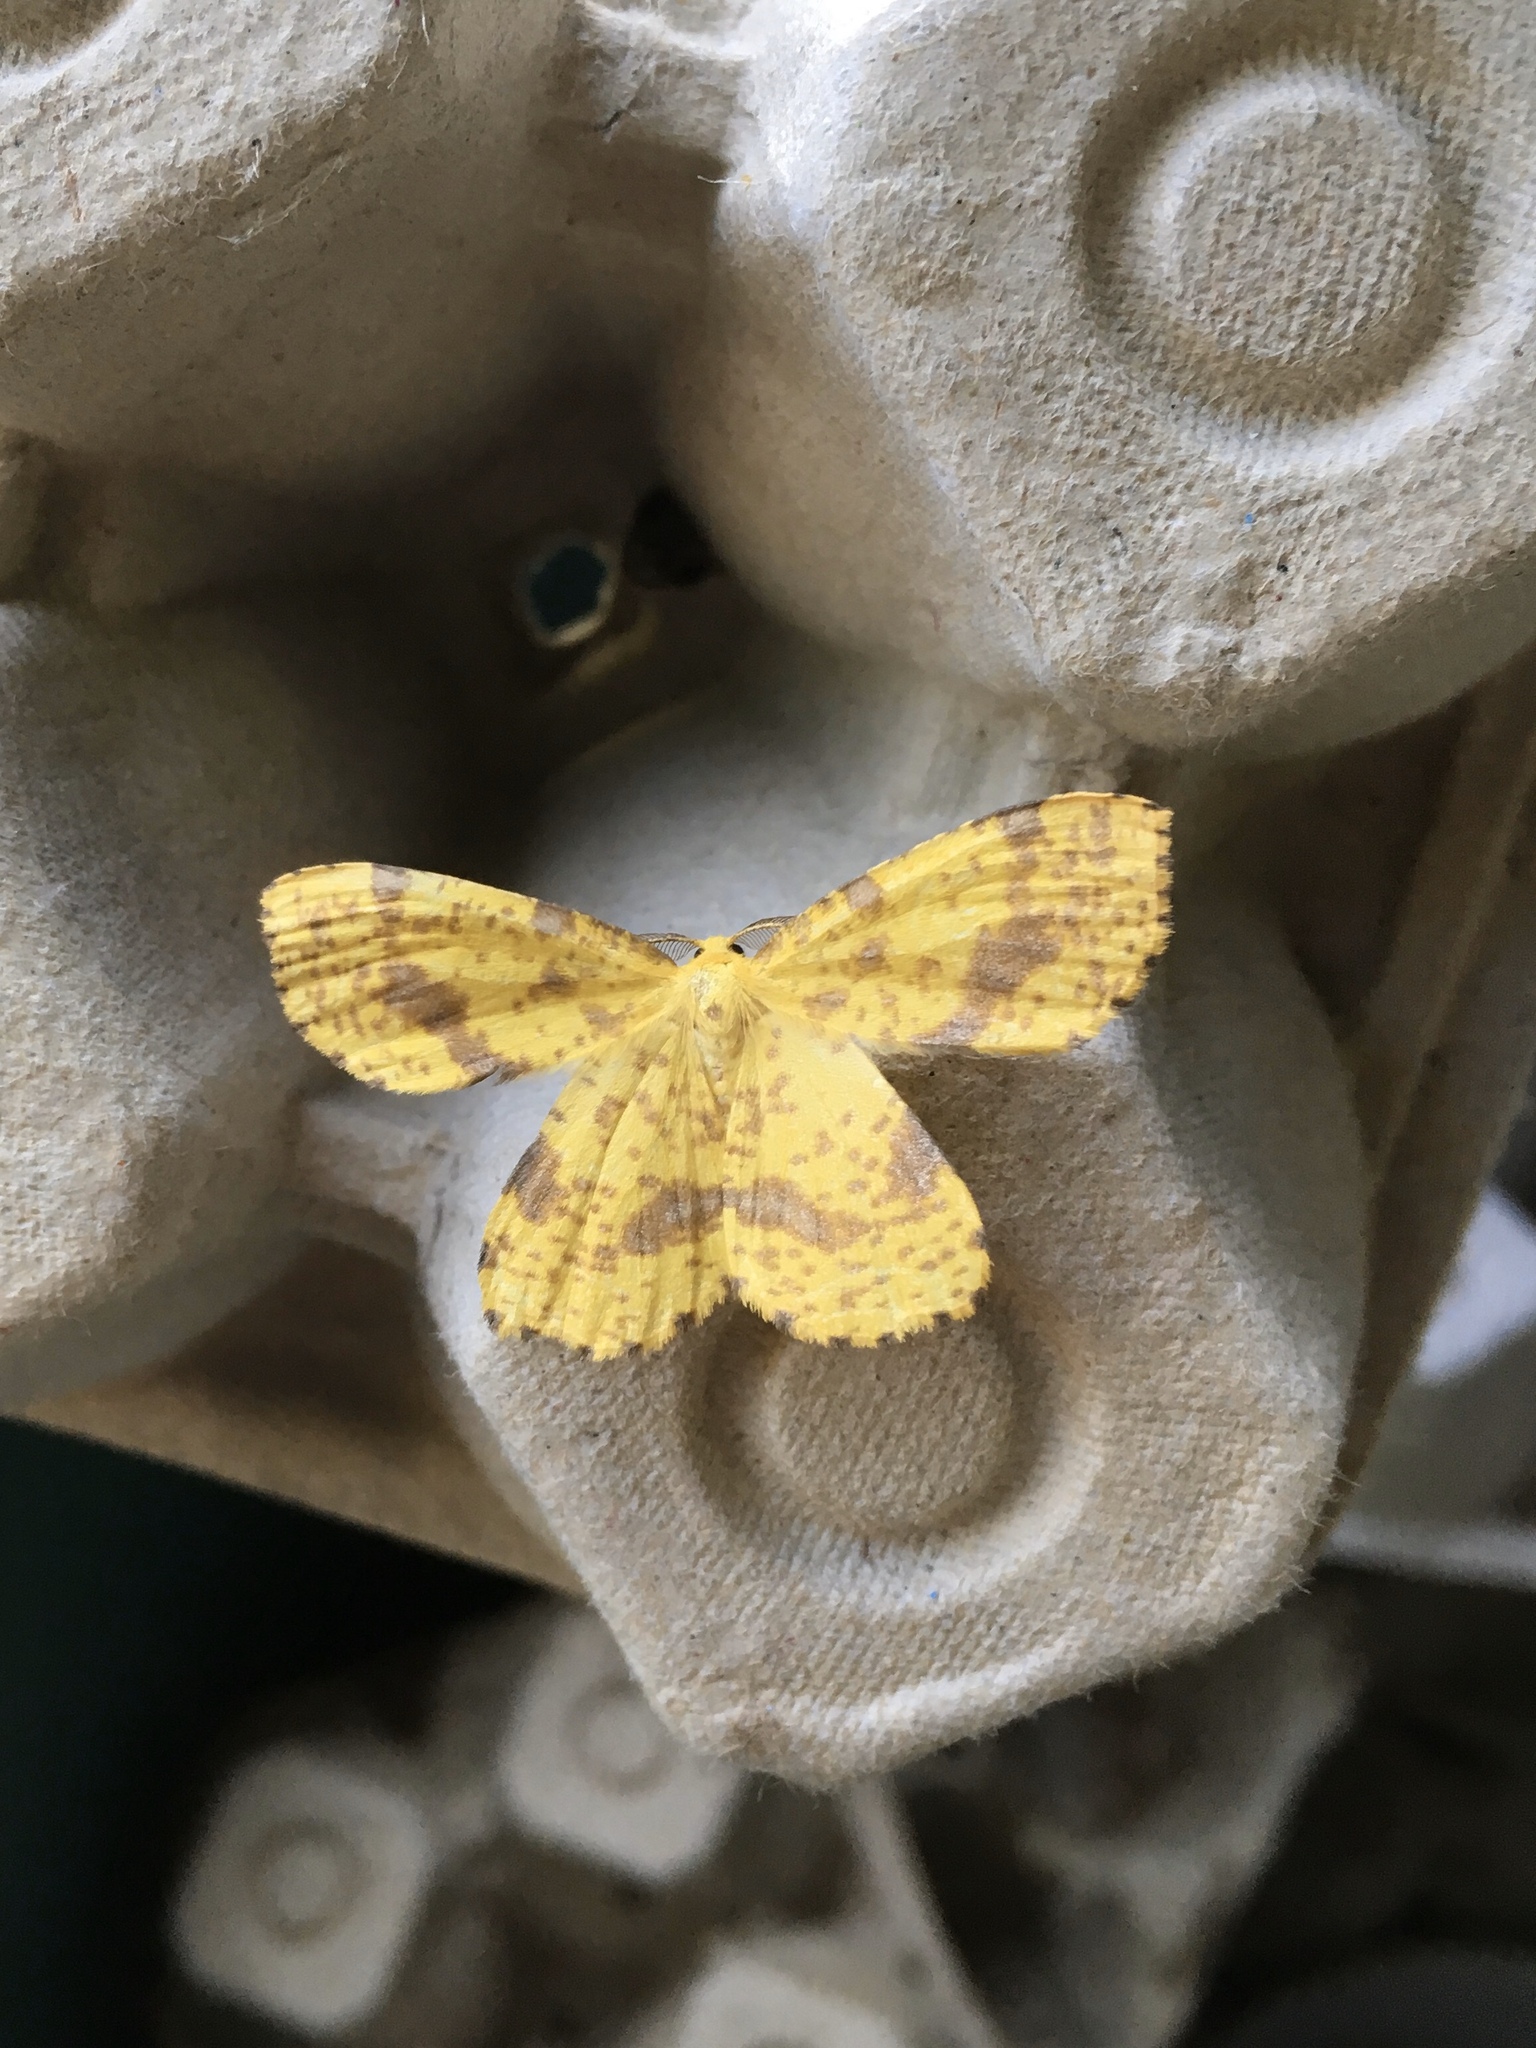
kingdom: Animalia
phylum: Arthropoda
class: Insecta
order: Lepidoptera
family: Geometridae
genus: Xanthotype
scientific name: Xanthotype
